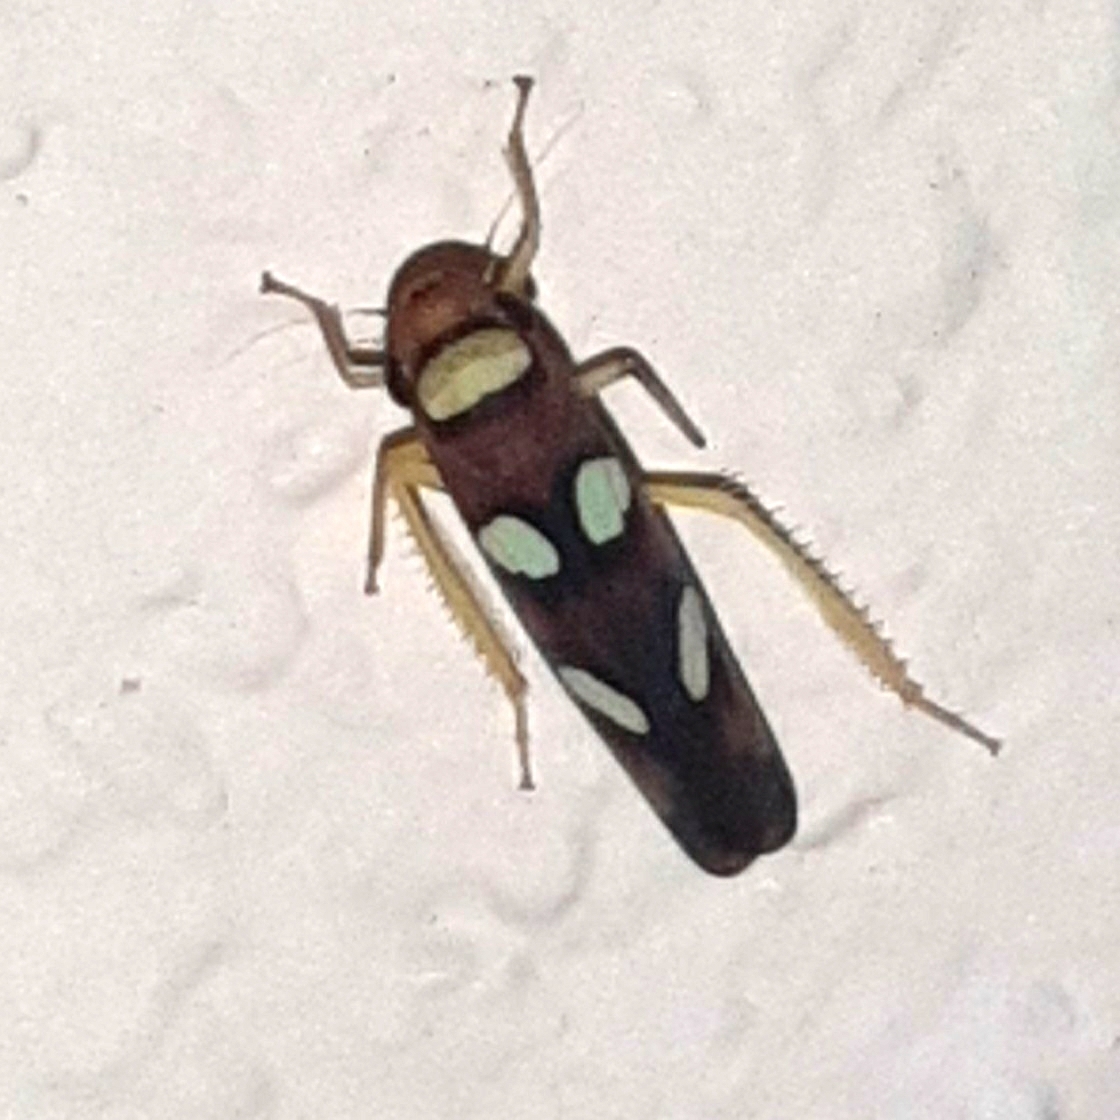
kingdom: Animalia
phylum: Arthropoda
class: Insecta
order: Hemiptera
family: Cicadellidae
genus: Erythrogonia
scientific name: Erythrogonia areolata
